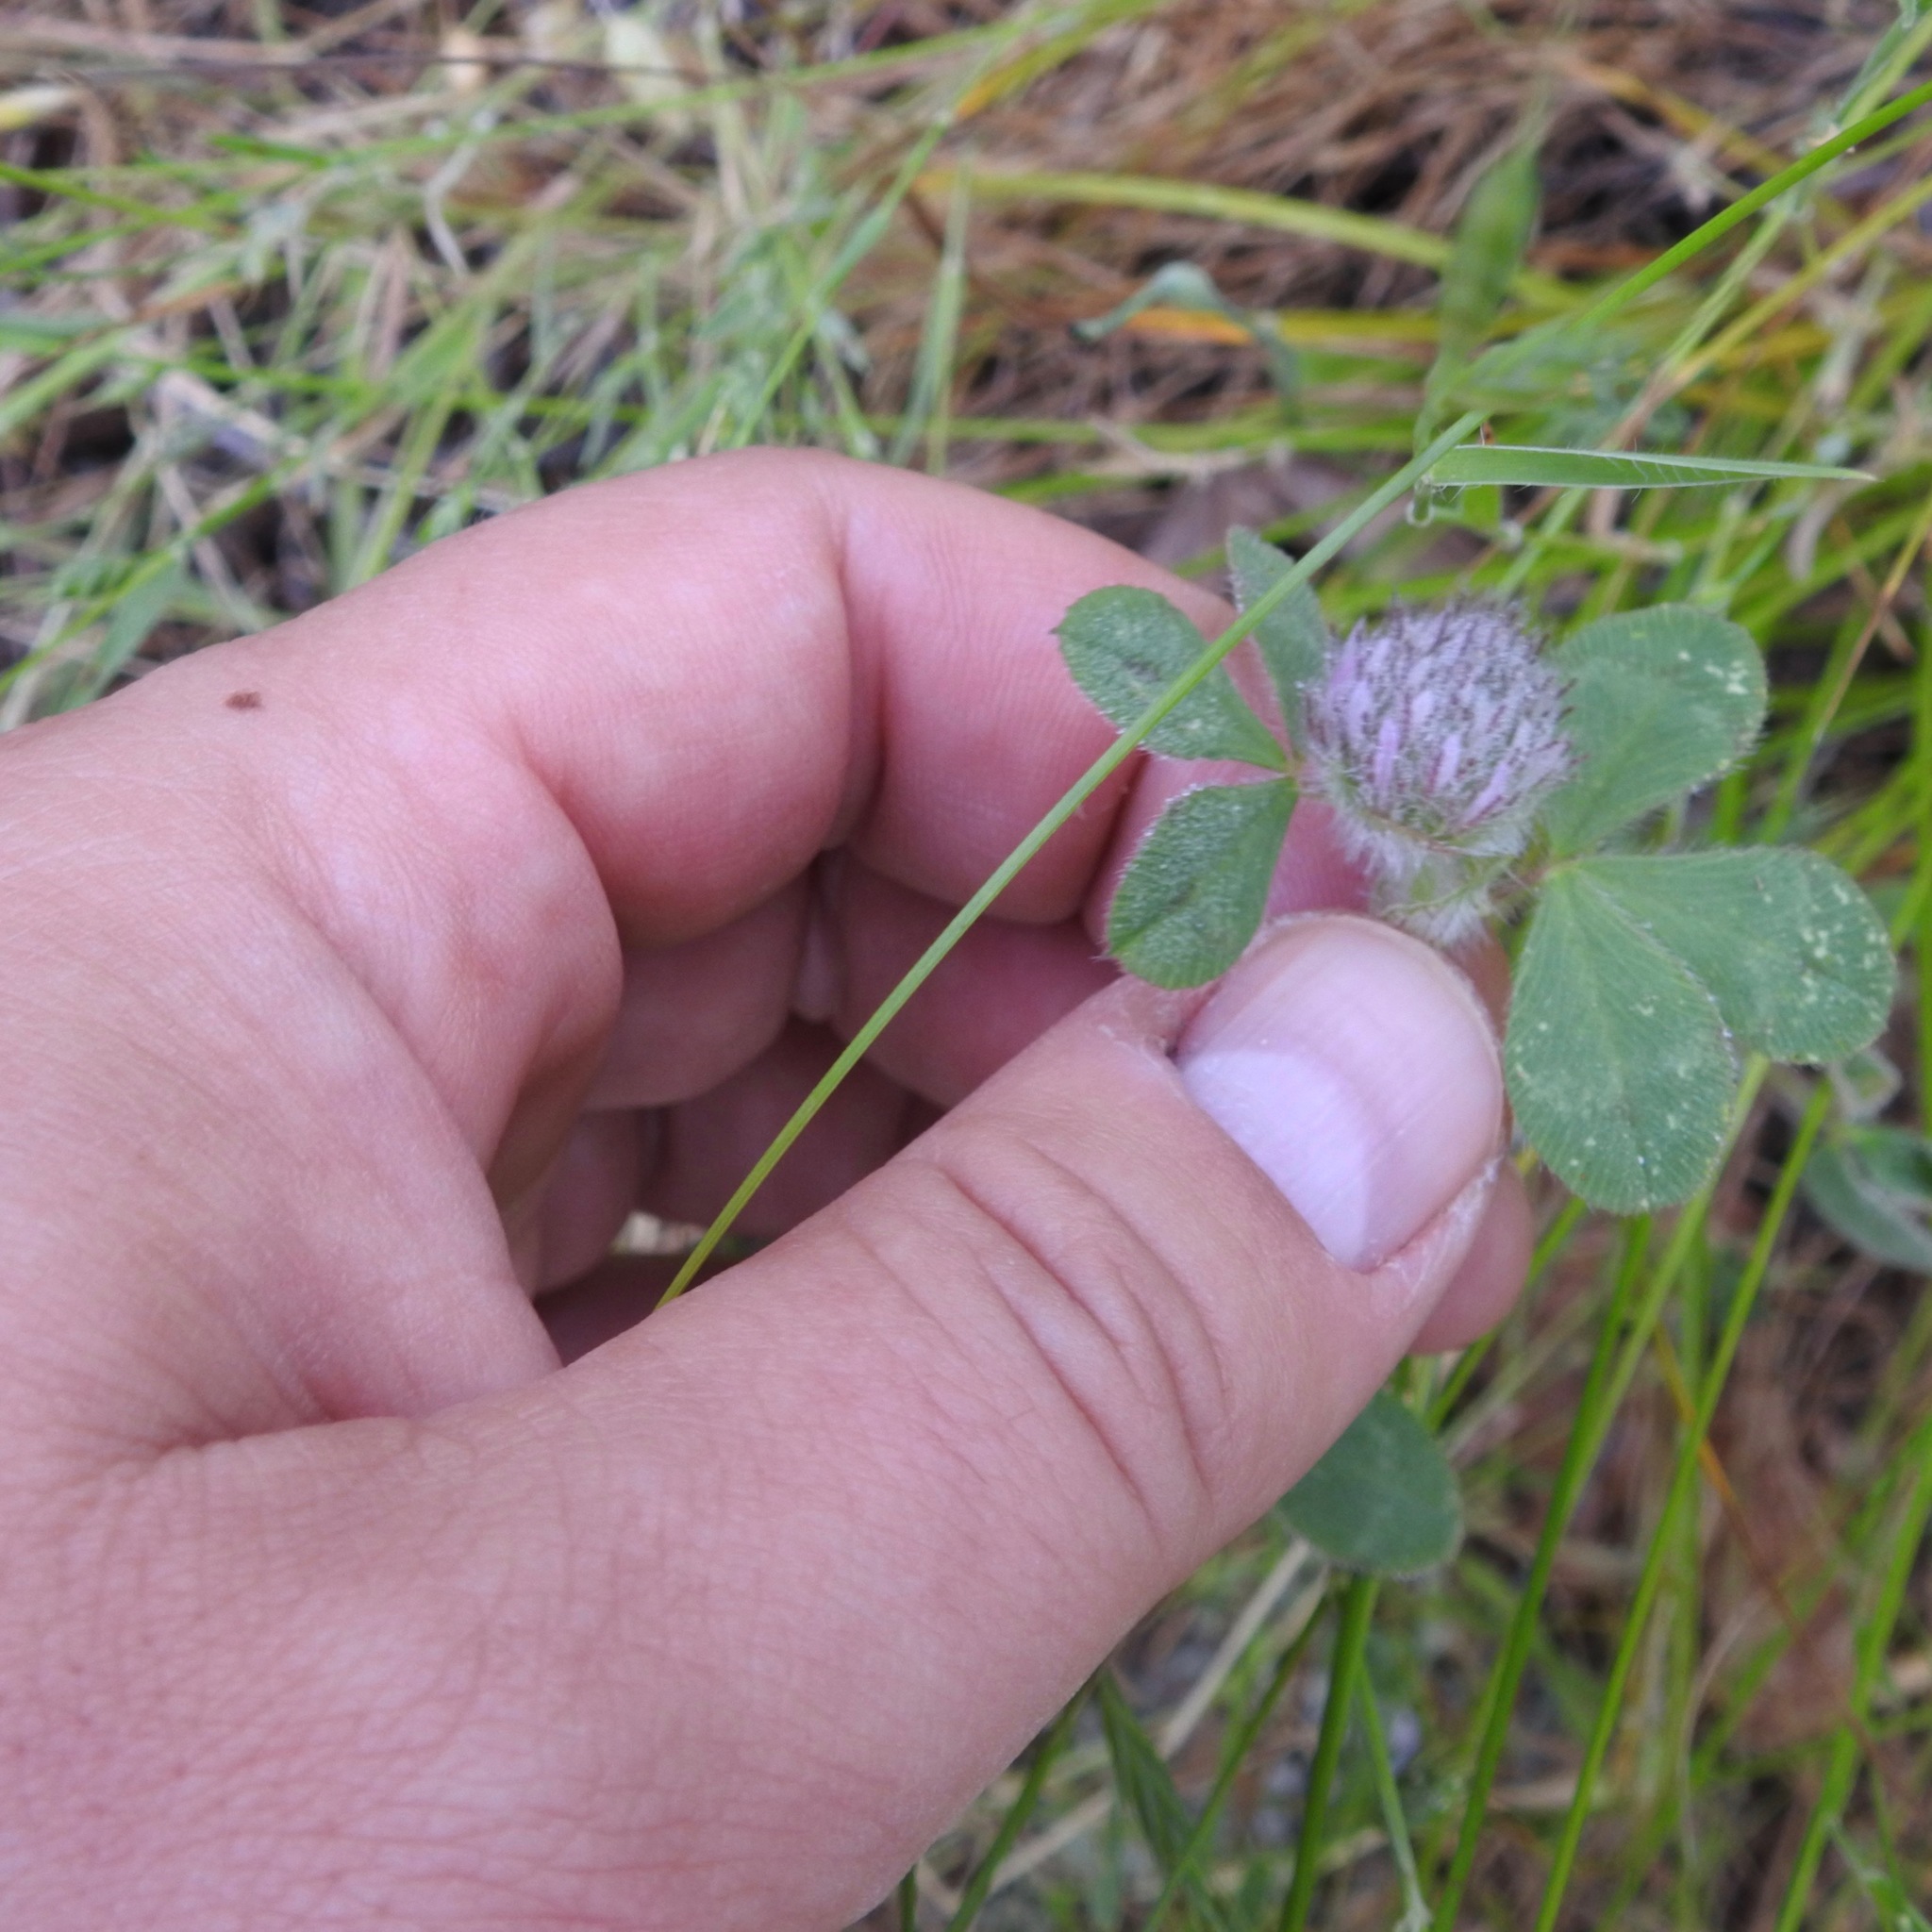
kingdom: Plantae
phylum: Tracheophyta
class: Magnoliopsida
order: Fabales
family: Fabaceae
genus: Trifolium
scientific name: Trifolium hirtum
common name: Rose clover
